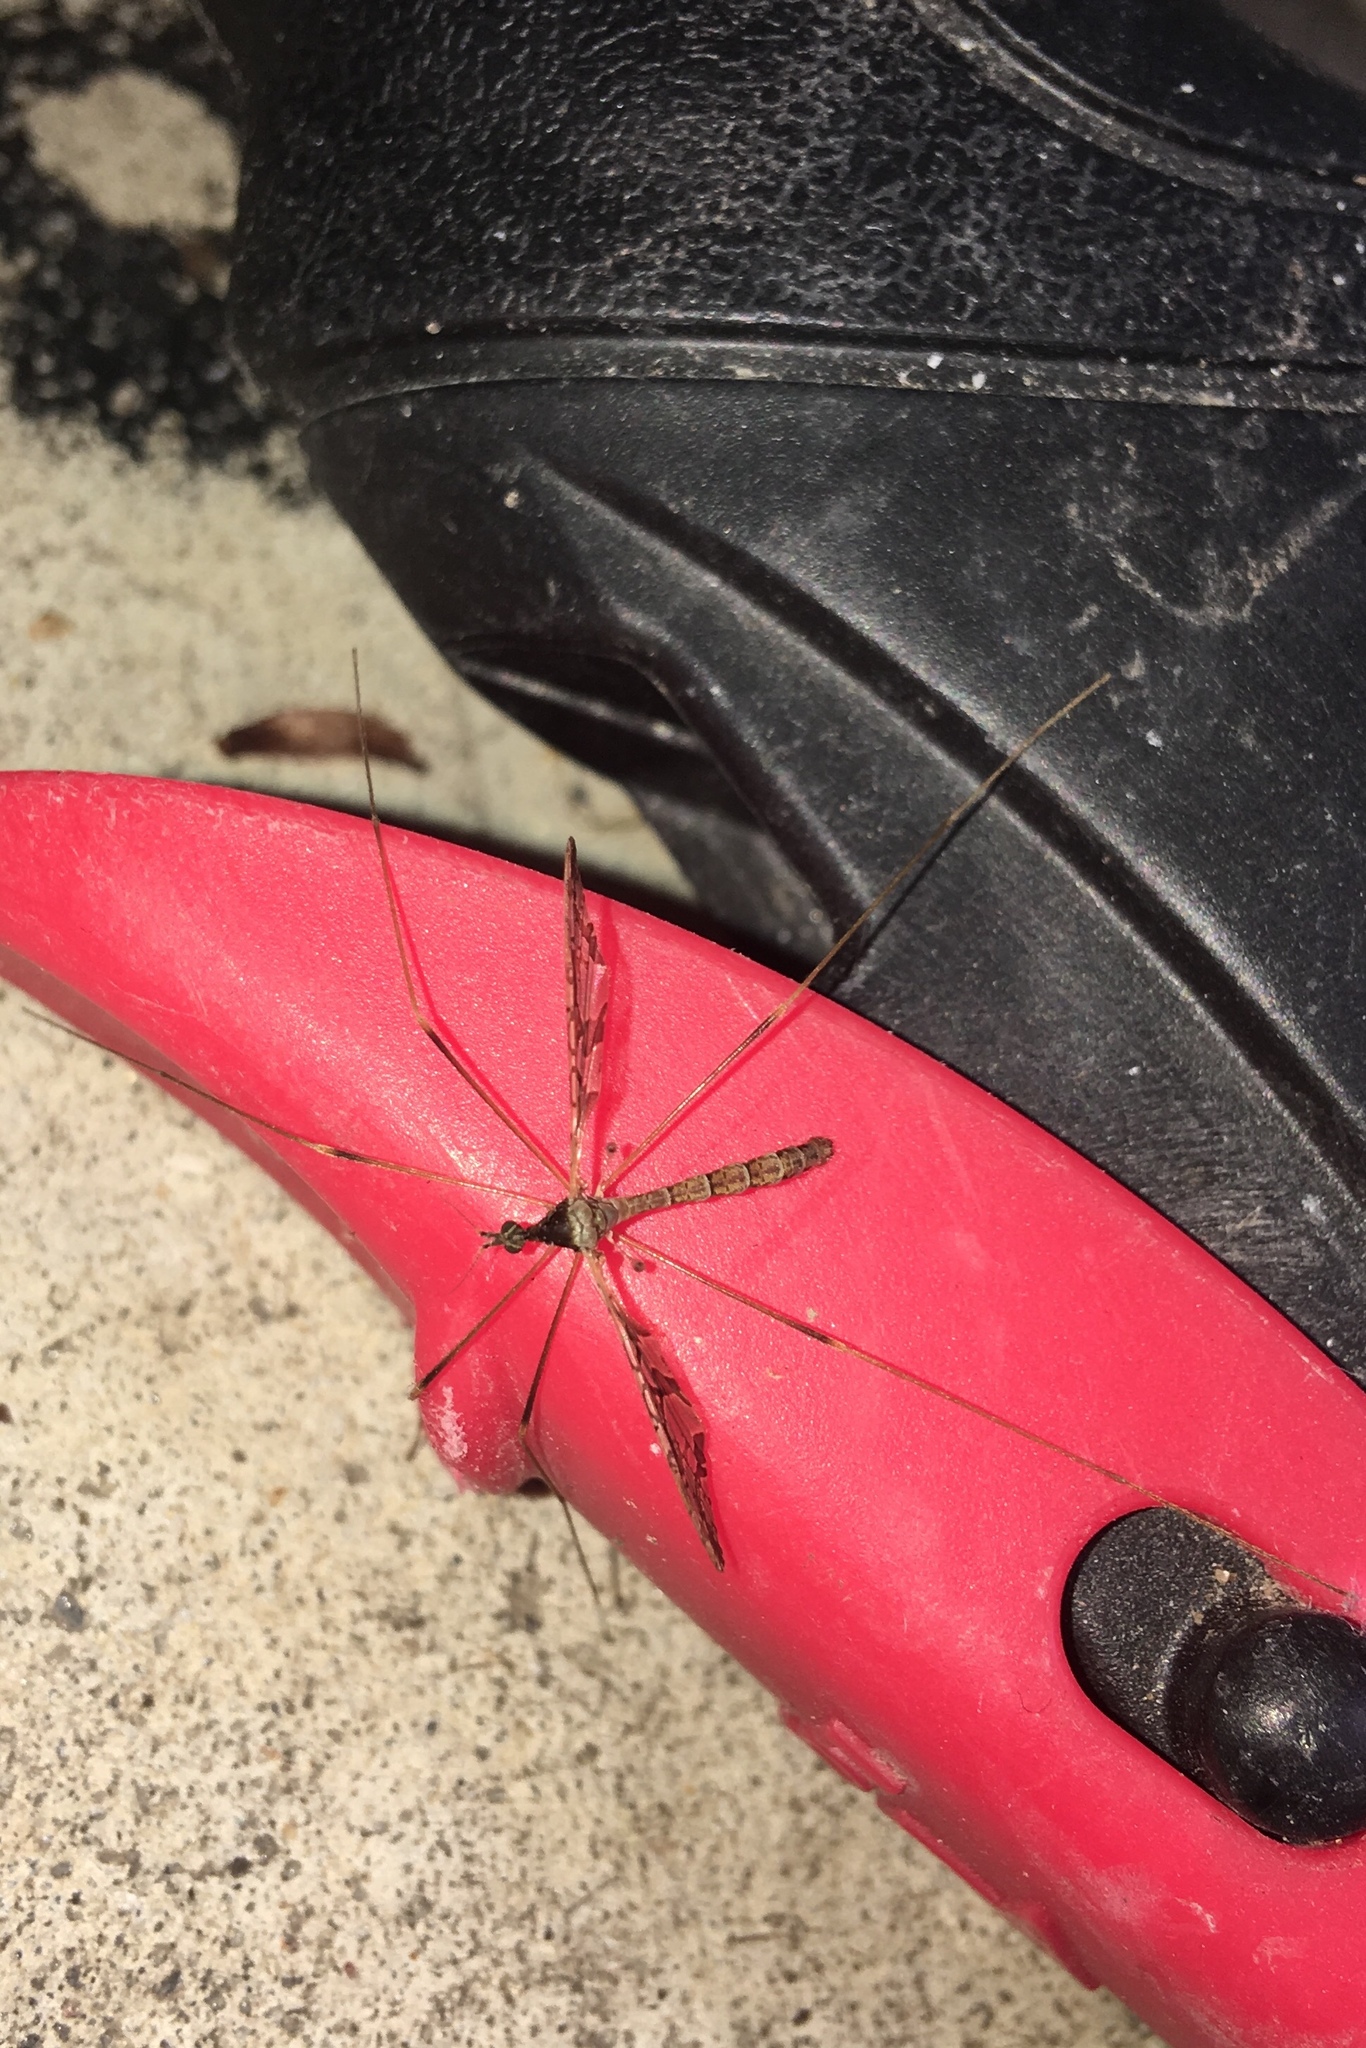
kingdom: Animalia
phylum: Arthropoda
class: Insecta
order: Diptera
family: Limoniidae
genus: Epiphragma
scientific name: Epiphragma solatrix
